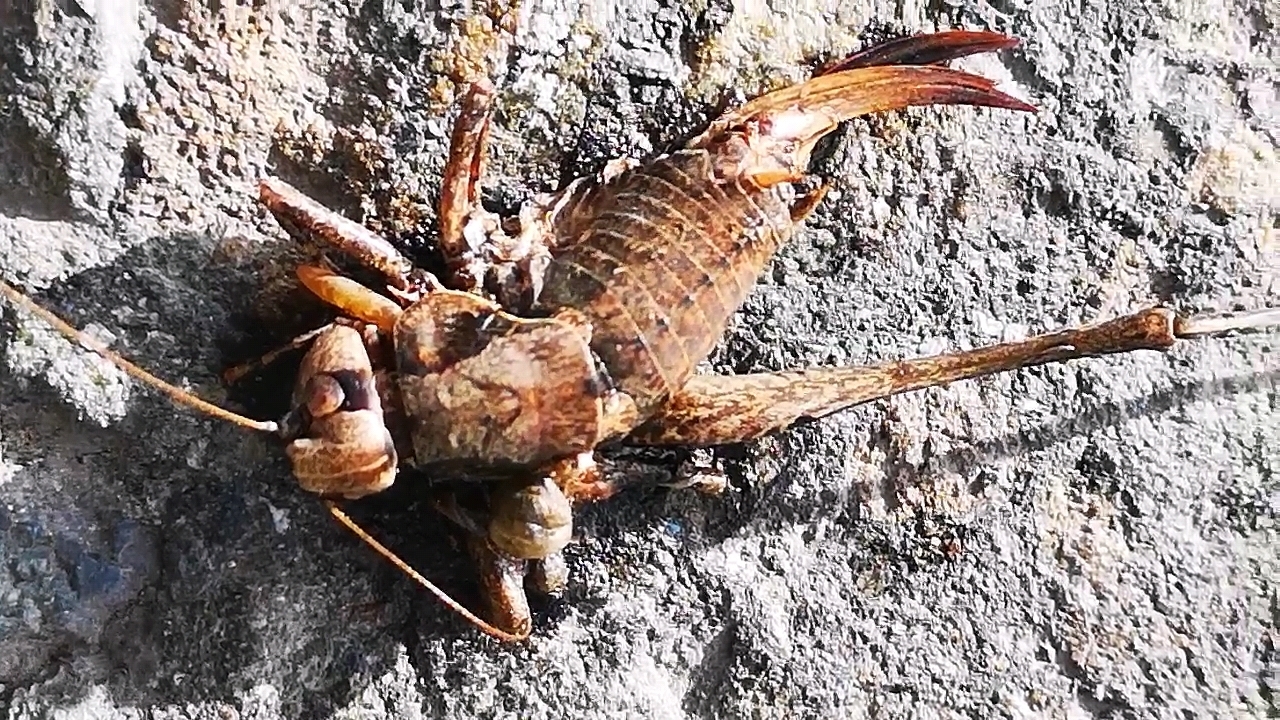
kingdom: Animalia
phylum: Arthropoda
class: Insecta
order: Orthoptera
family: Tettigoniidae
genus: Pholidoptera
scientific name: Pholidoptera griseoaptera
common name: Dark bush-cricket
